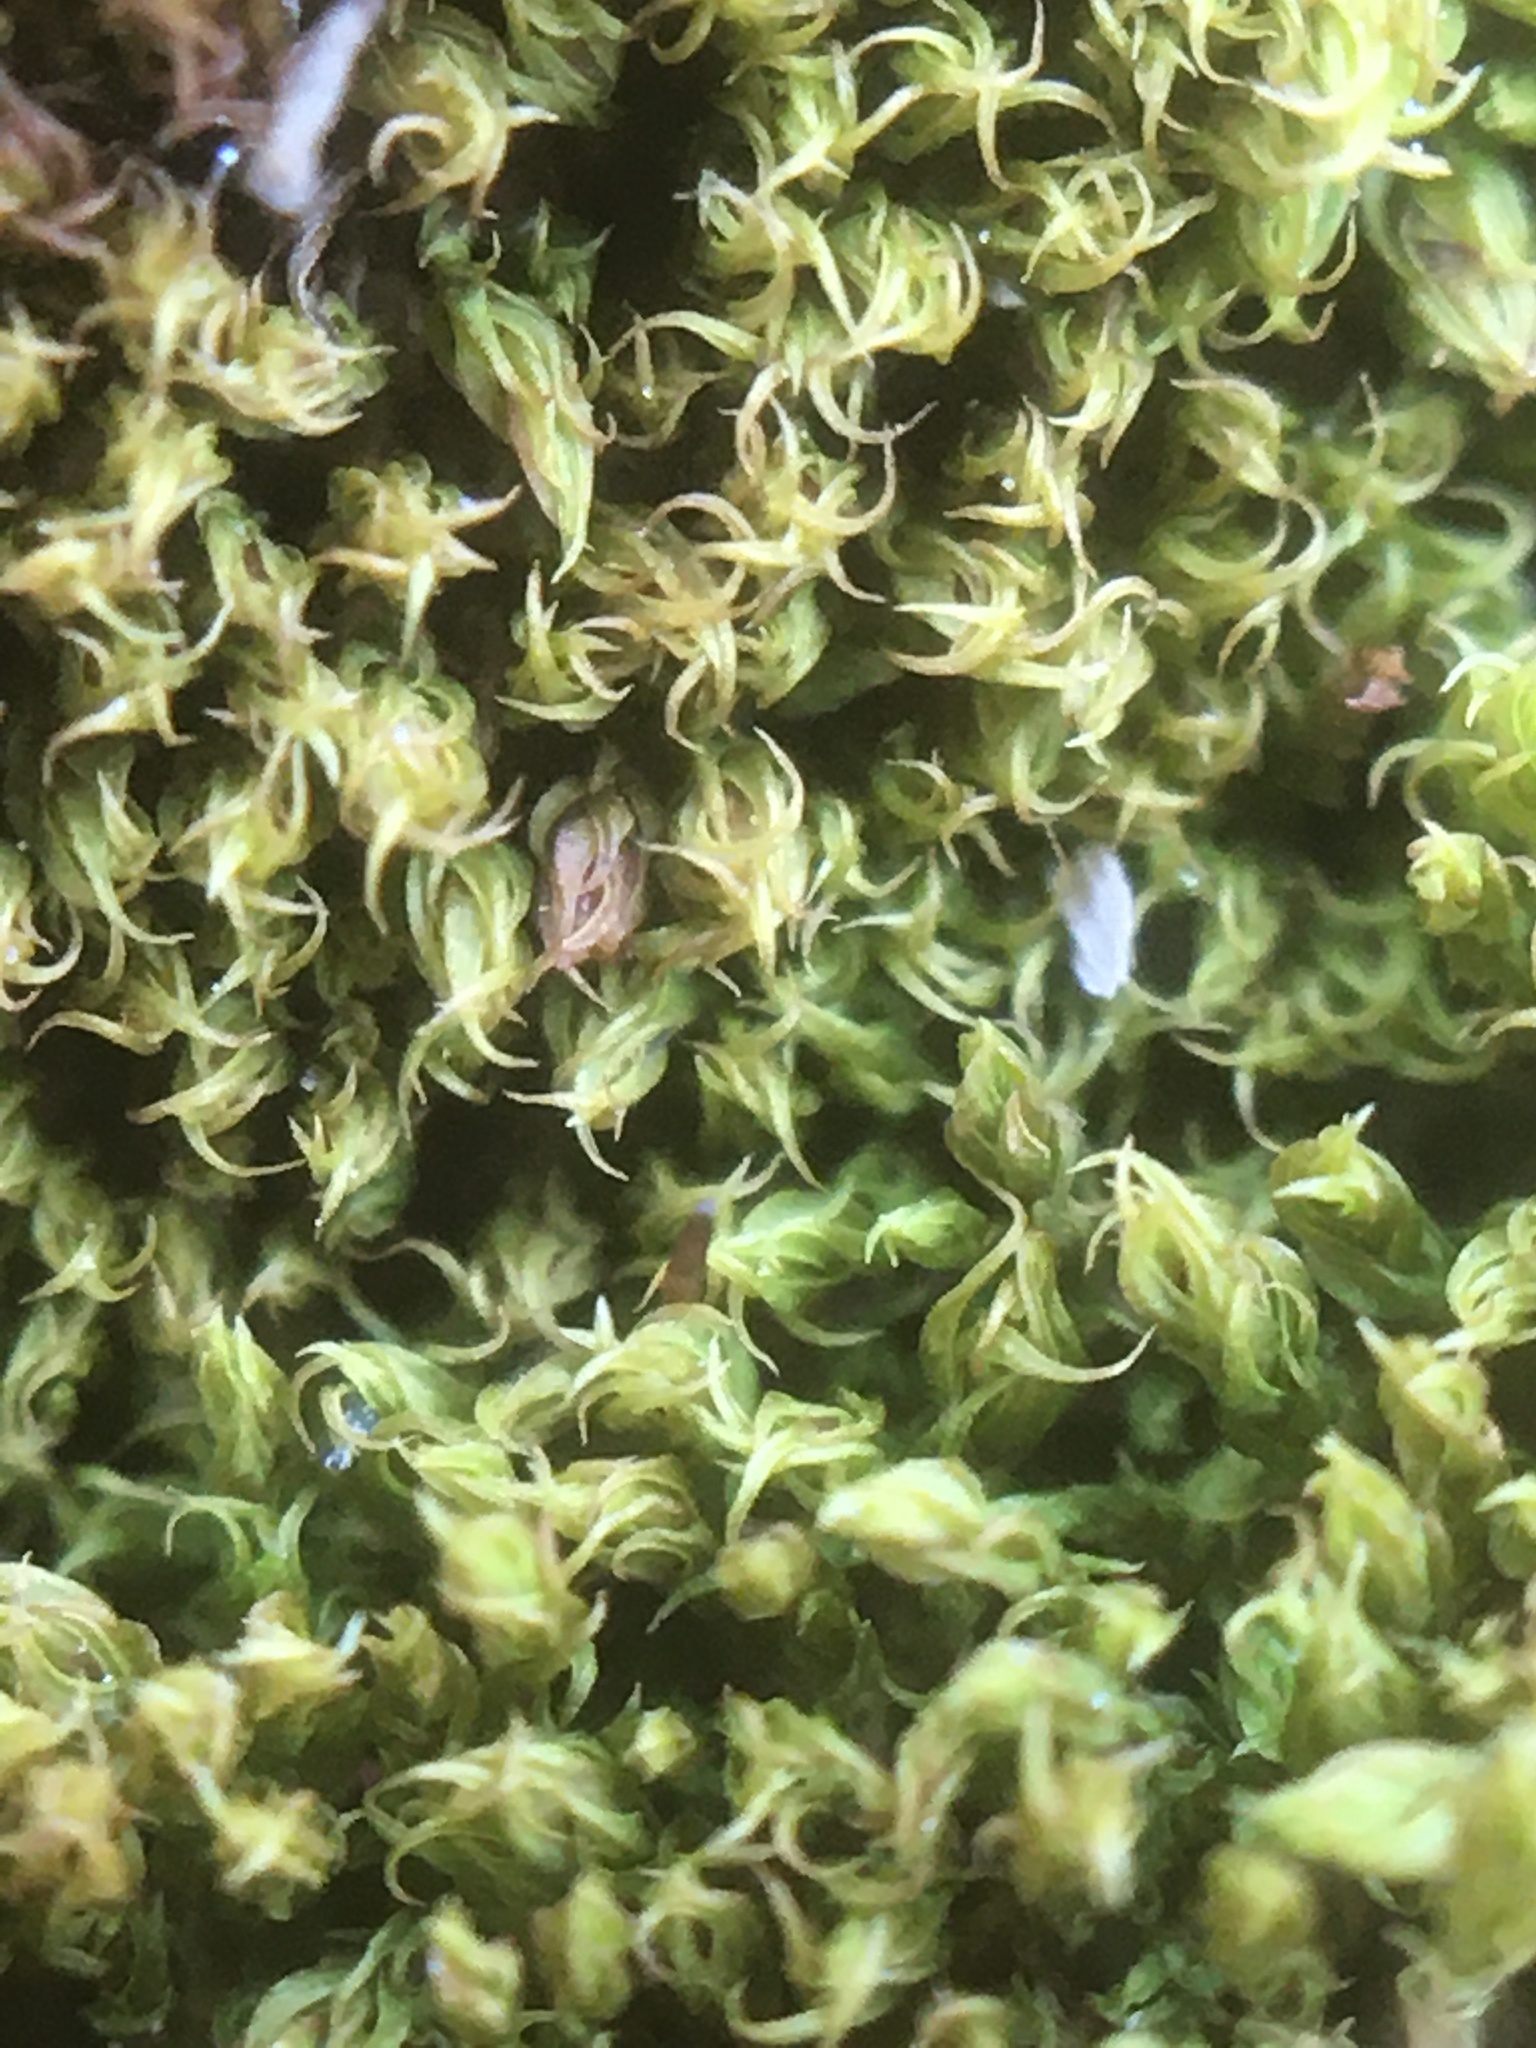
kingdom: Plantae
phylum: Bryophyta
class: Bryopsida
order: Dicranales
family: Ditrichaceae
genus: Ceratodon
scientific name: Ceratodon purpureus
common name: Redshank
